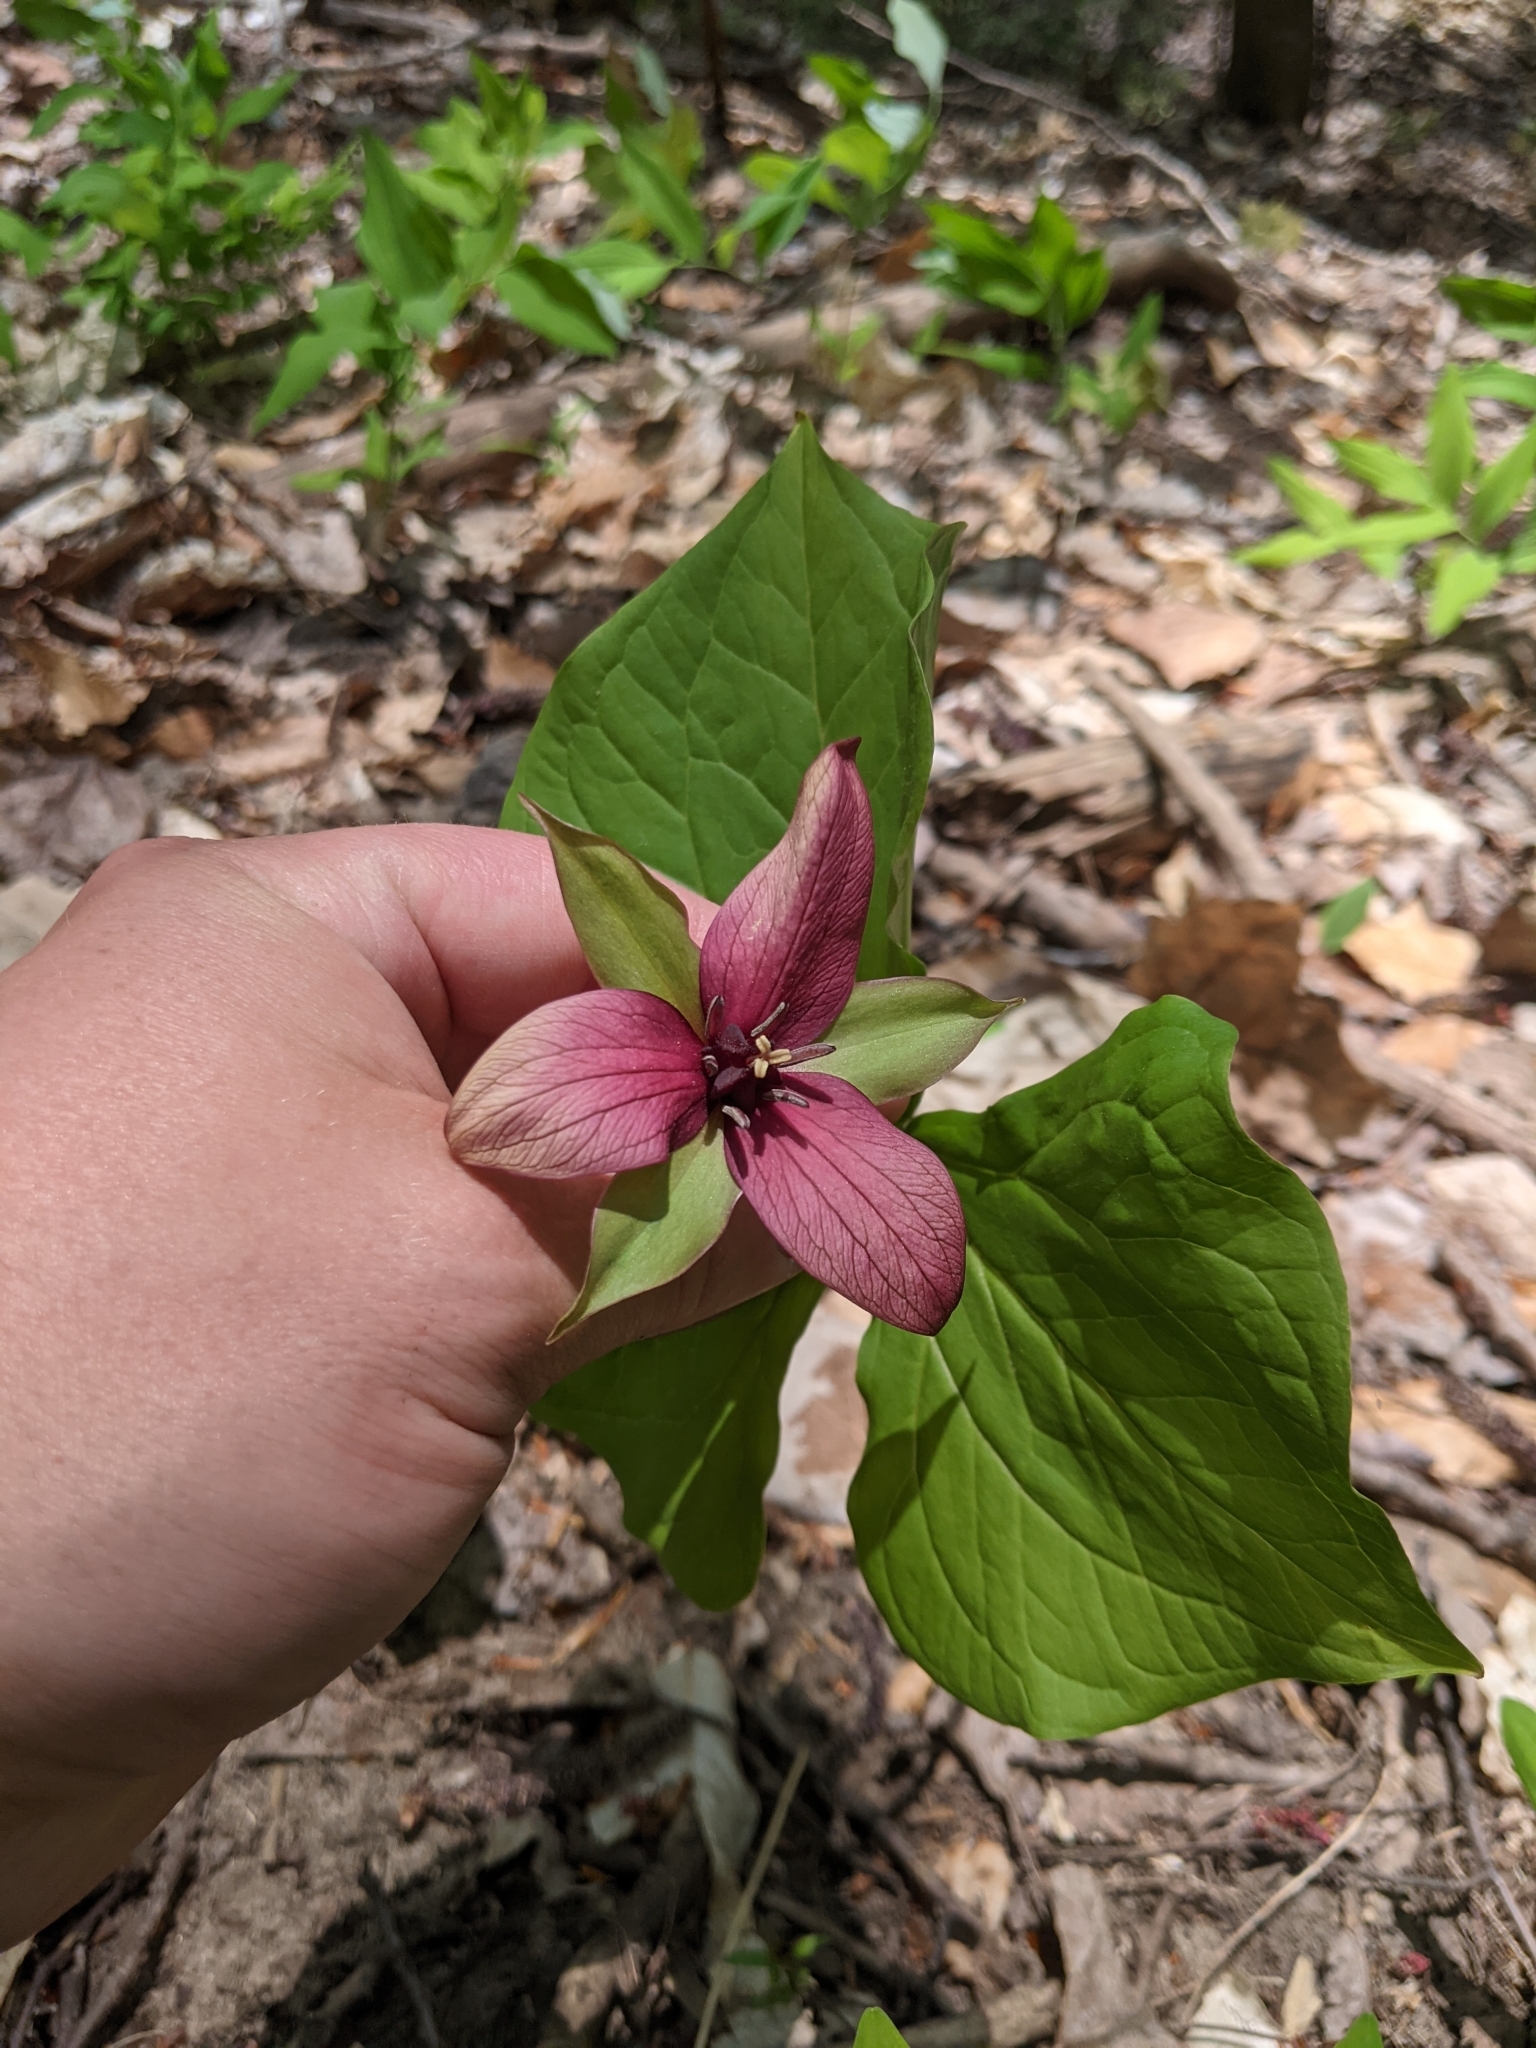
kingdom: Plantae
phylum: Tracheophyta
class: Liliopsida
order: Liliales
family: Melanthiaceae
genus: Trillium
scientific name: Trillium erectum
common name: Purple trillium
